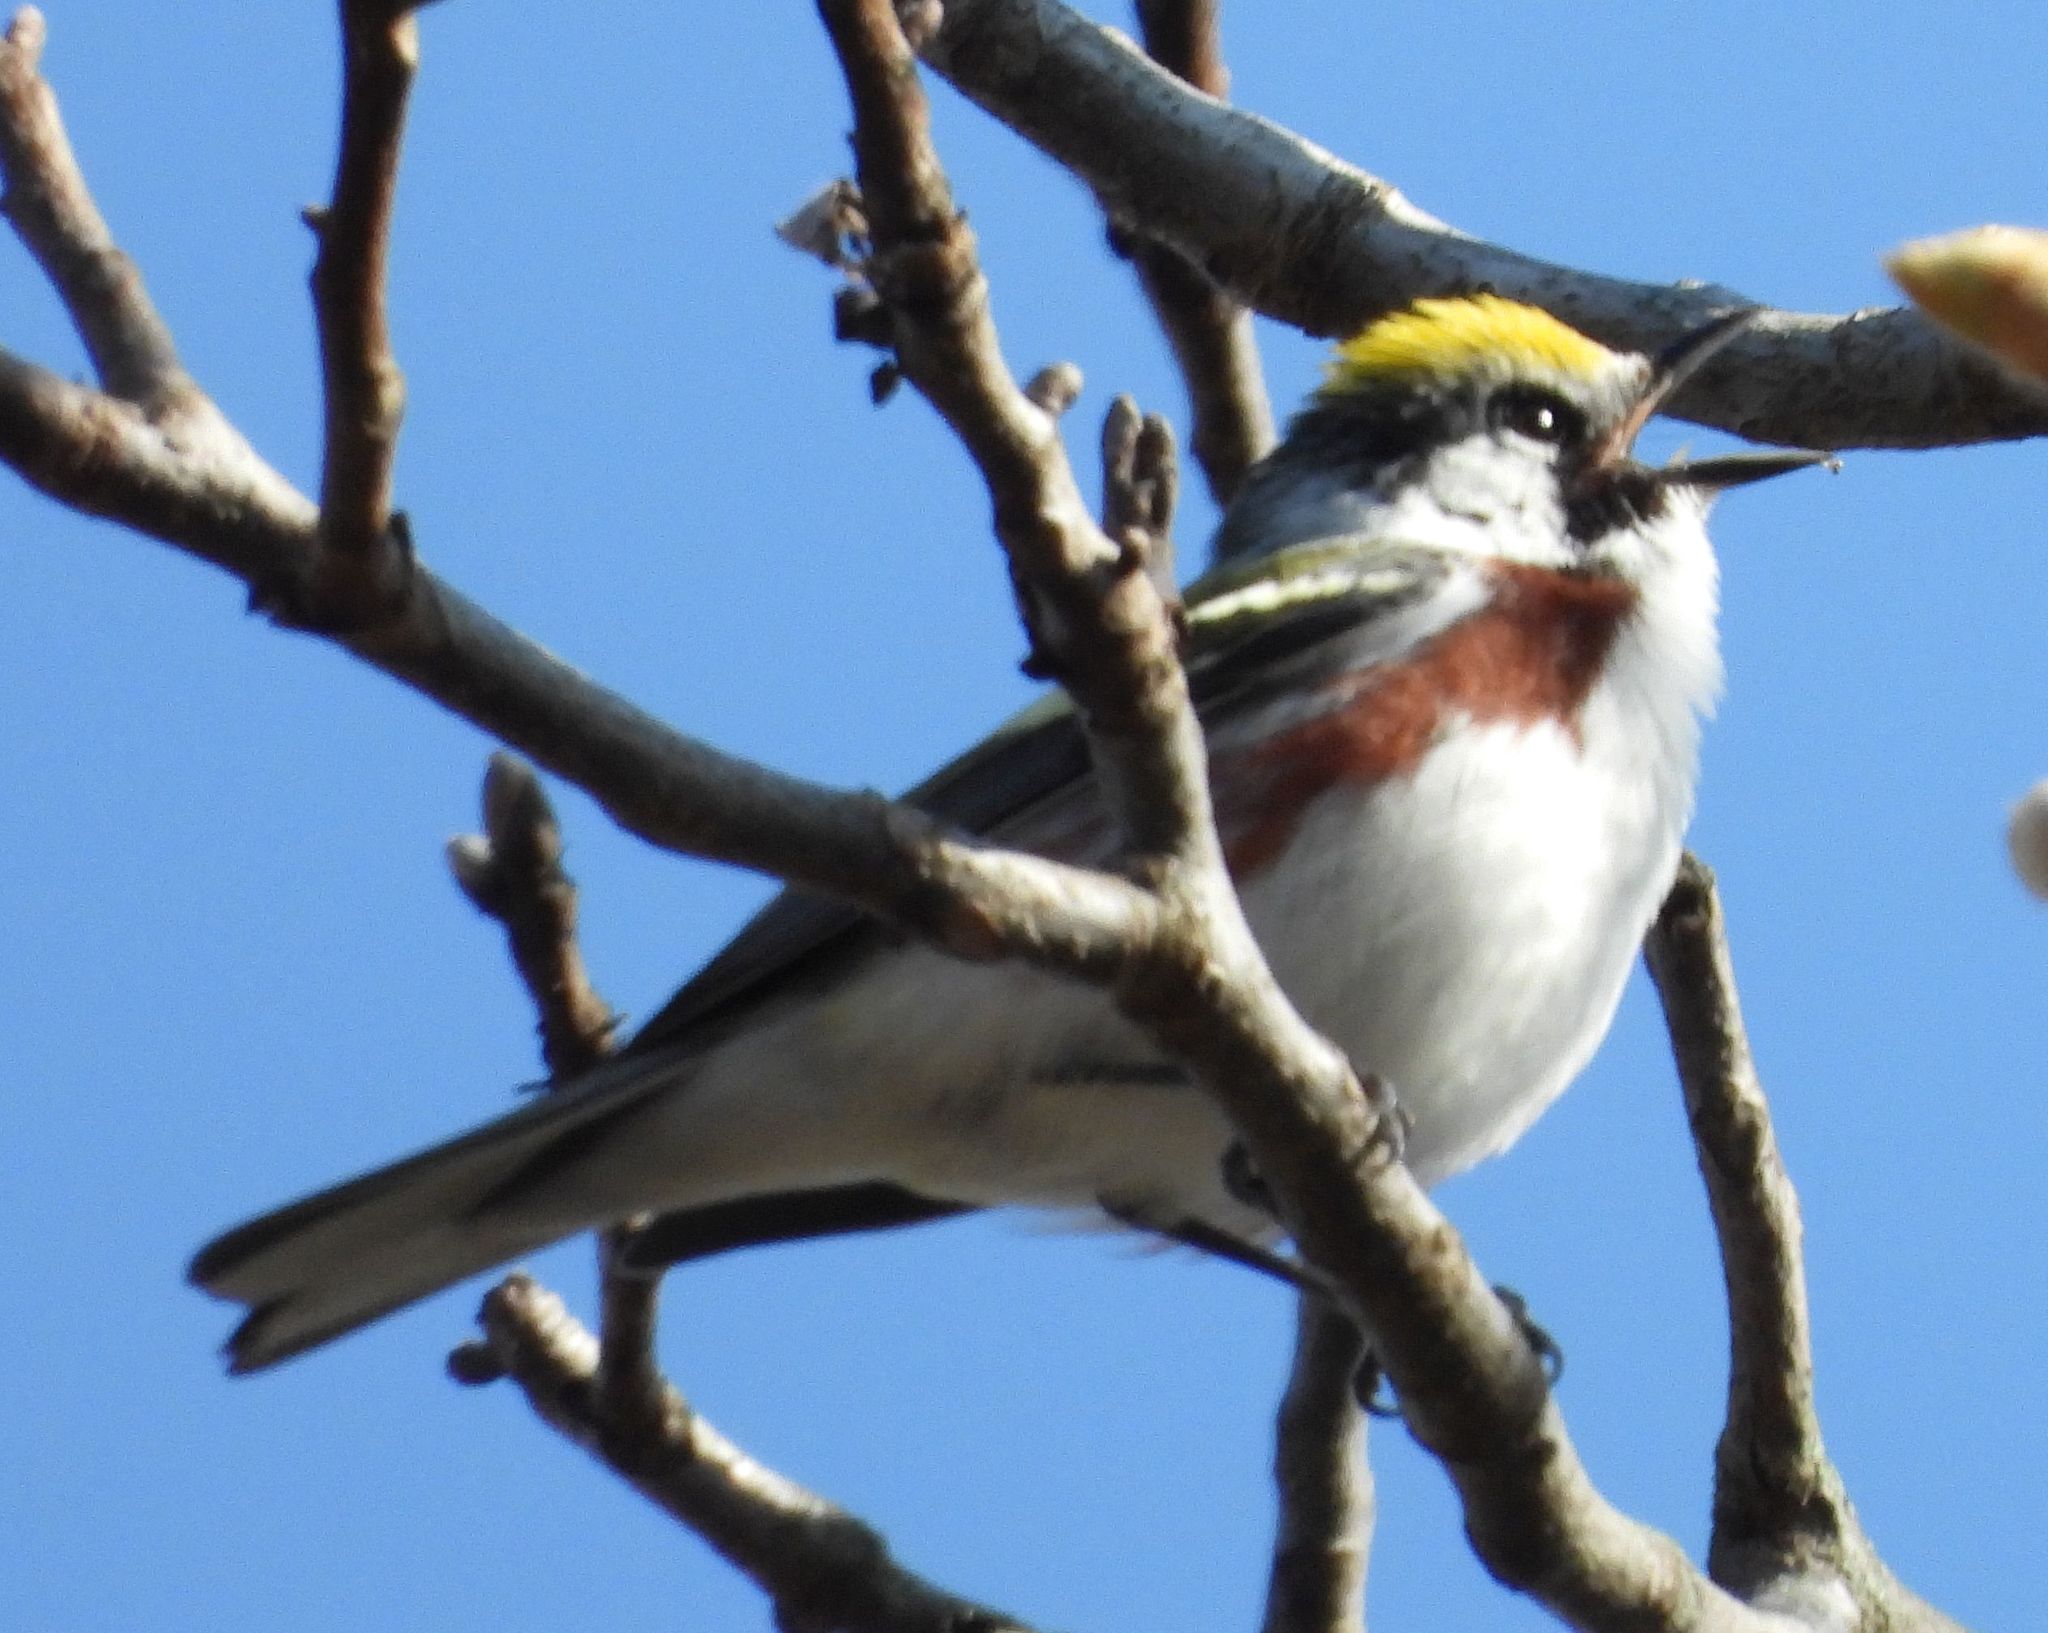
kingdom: Animalia
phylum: Chordata
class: Aves
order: Passeriformes
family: Parulidae
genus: Setophaga
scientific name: Setophaga pensylvanica
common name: Chestnut-sided warbler
